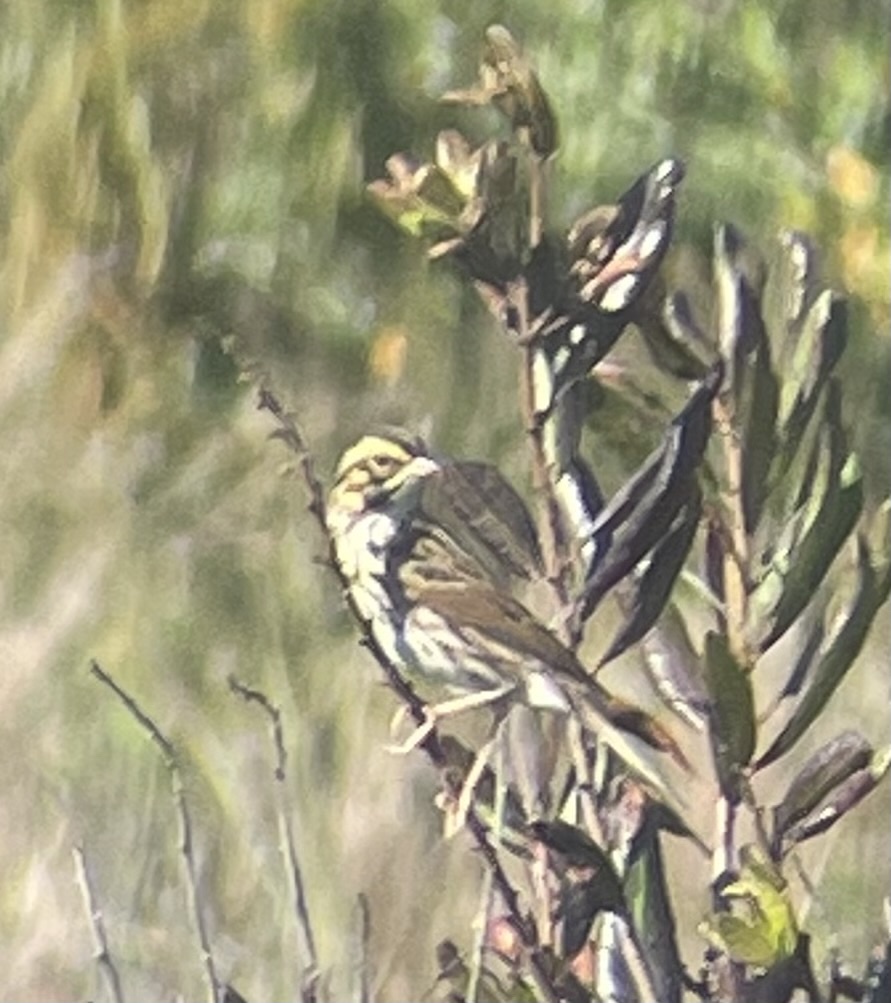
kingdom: Animalia
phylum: Chordata
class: Aves
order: Passeriformes
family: Passerellidae
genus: Passerculus
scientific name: Passerculus sandwichensis
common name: Savannah sparrow
